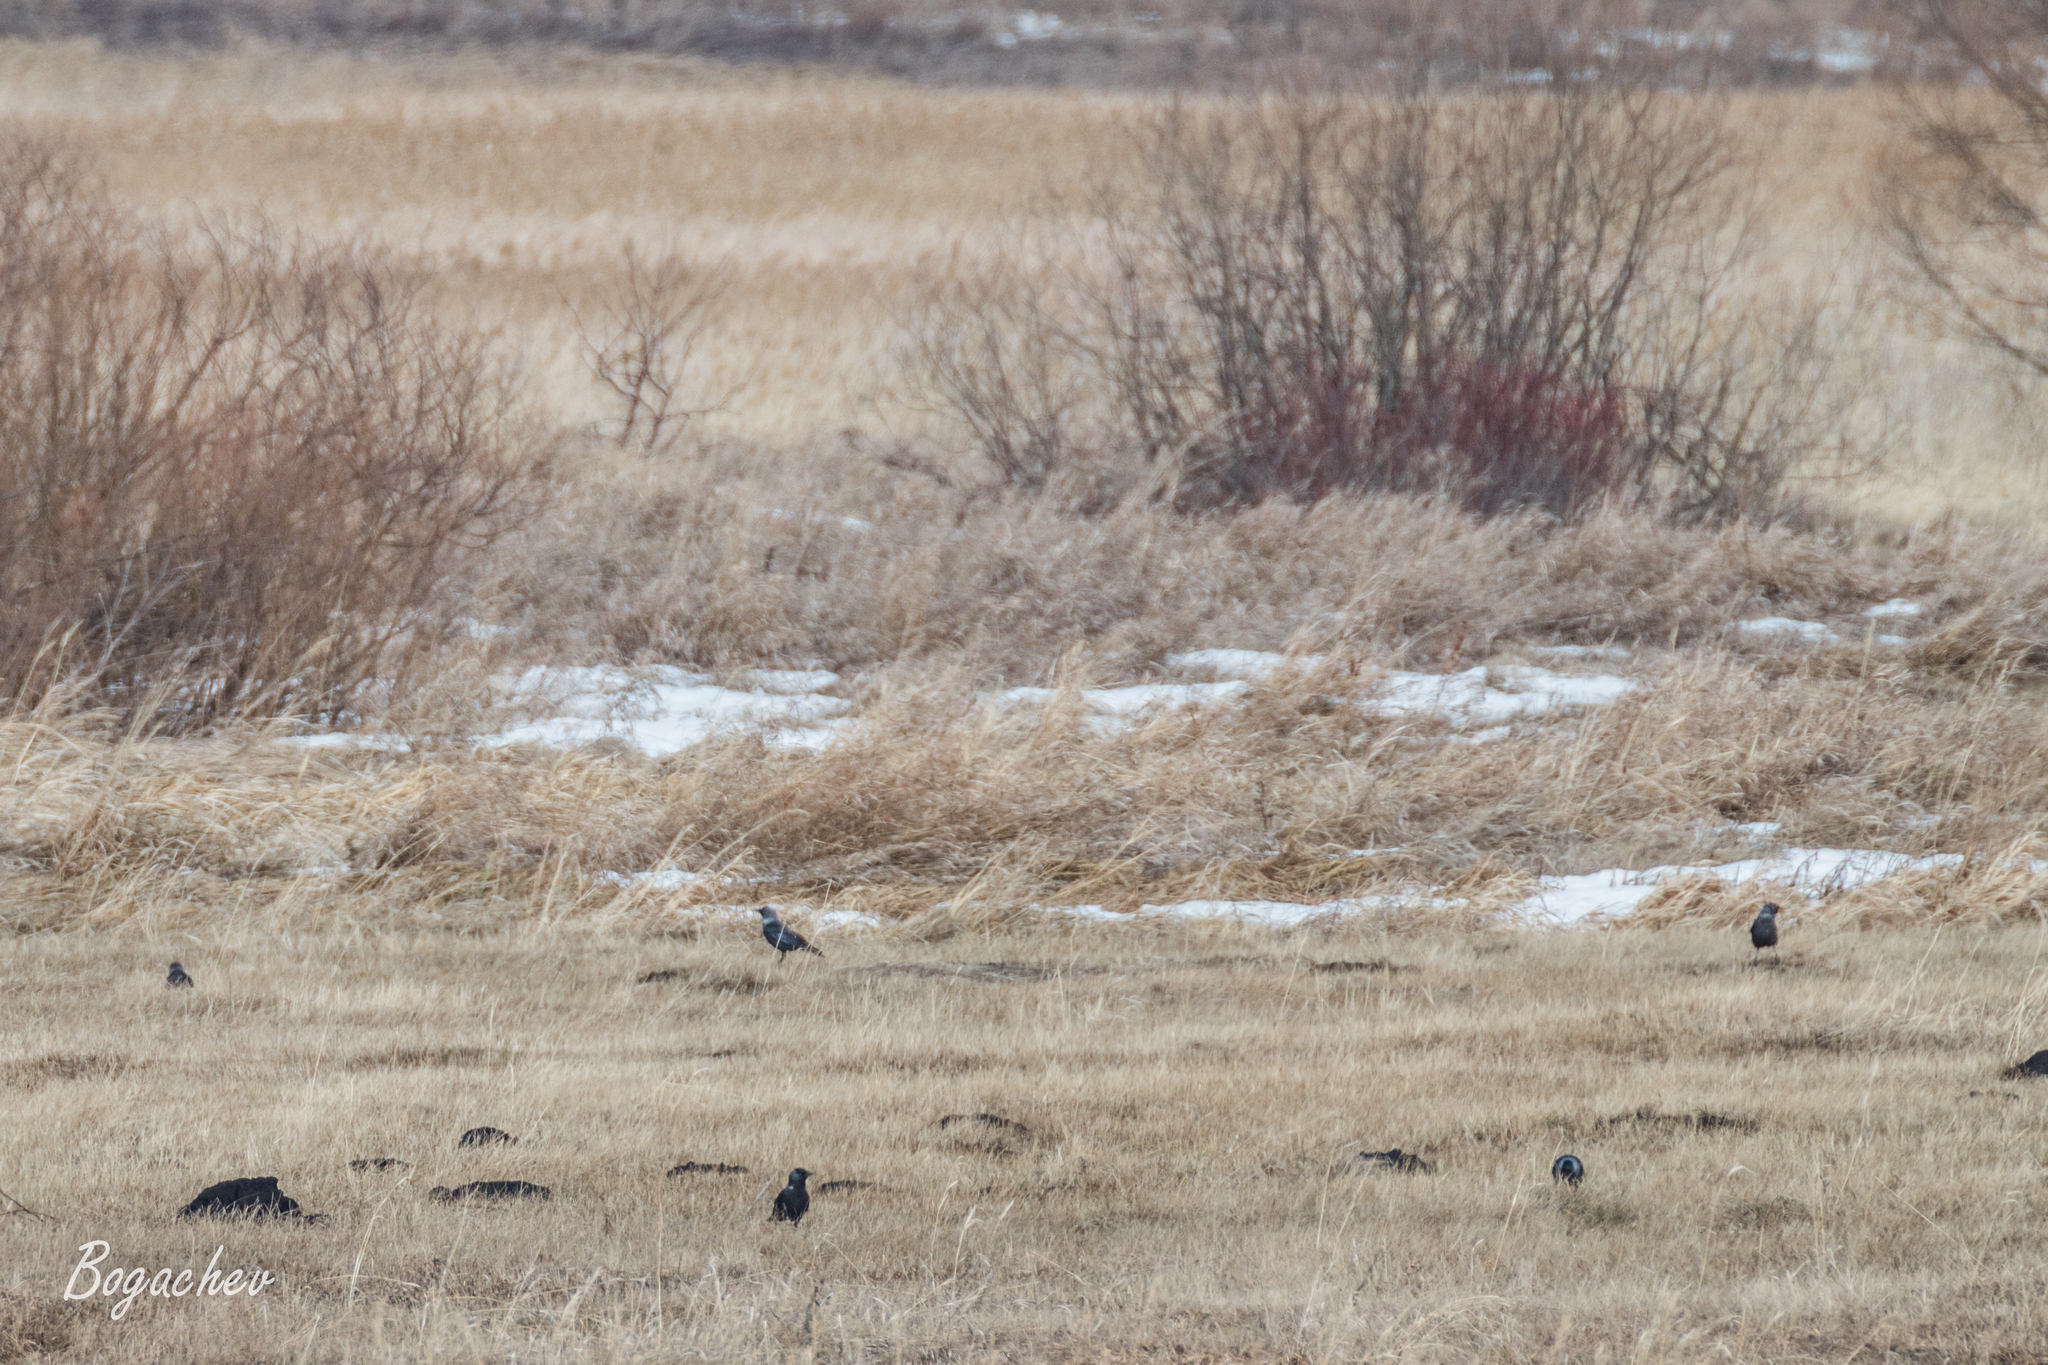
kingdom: Animalia
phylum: Chordata
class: Aves
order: Passeriformes
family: Corvidae
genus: Coloeus
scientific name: Coloeus monedula
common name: Western jackdaw
